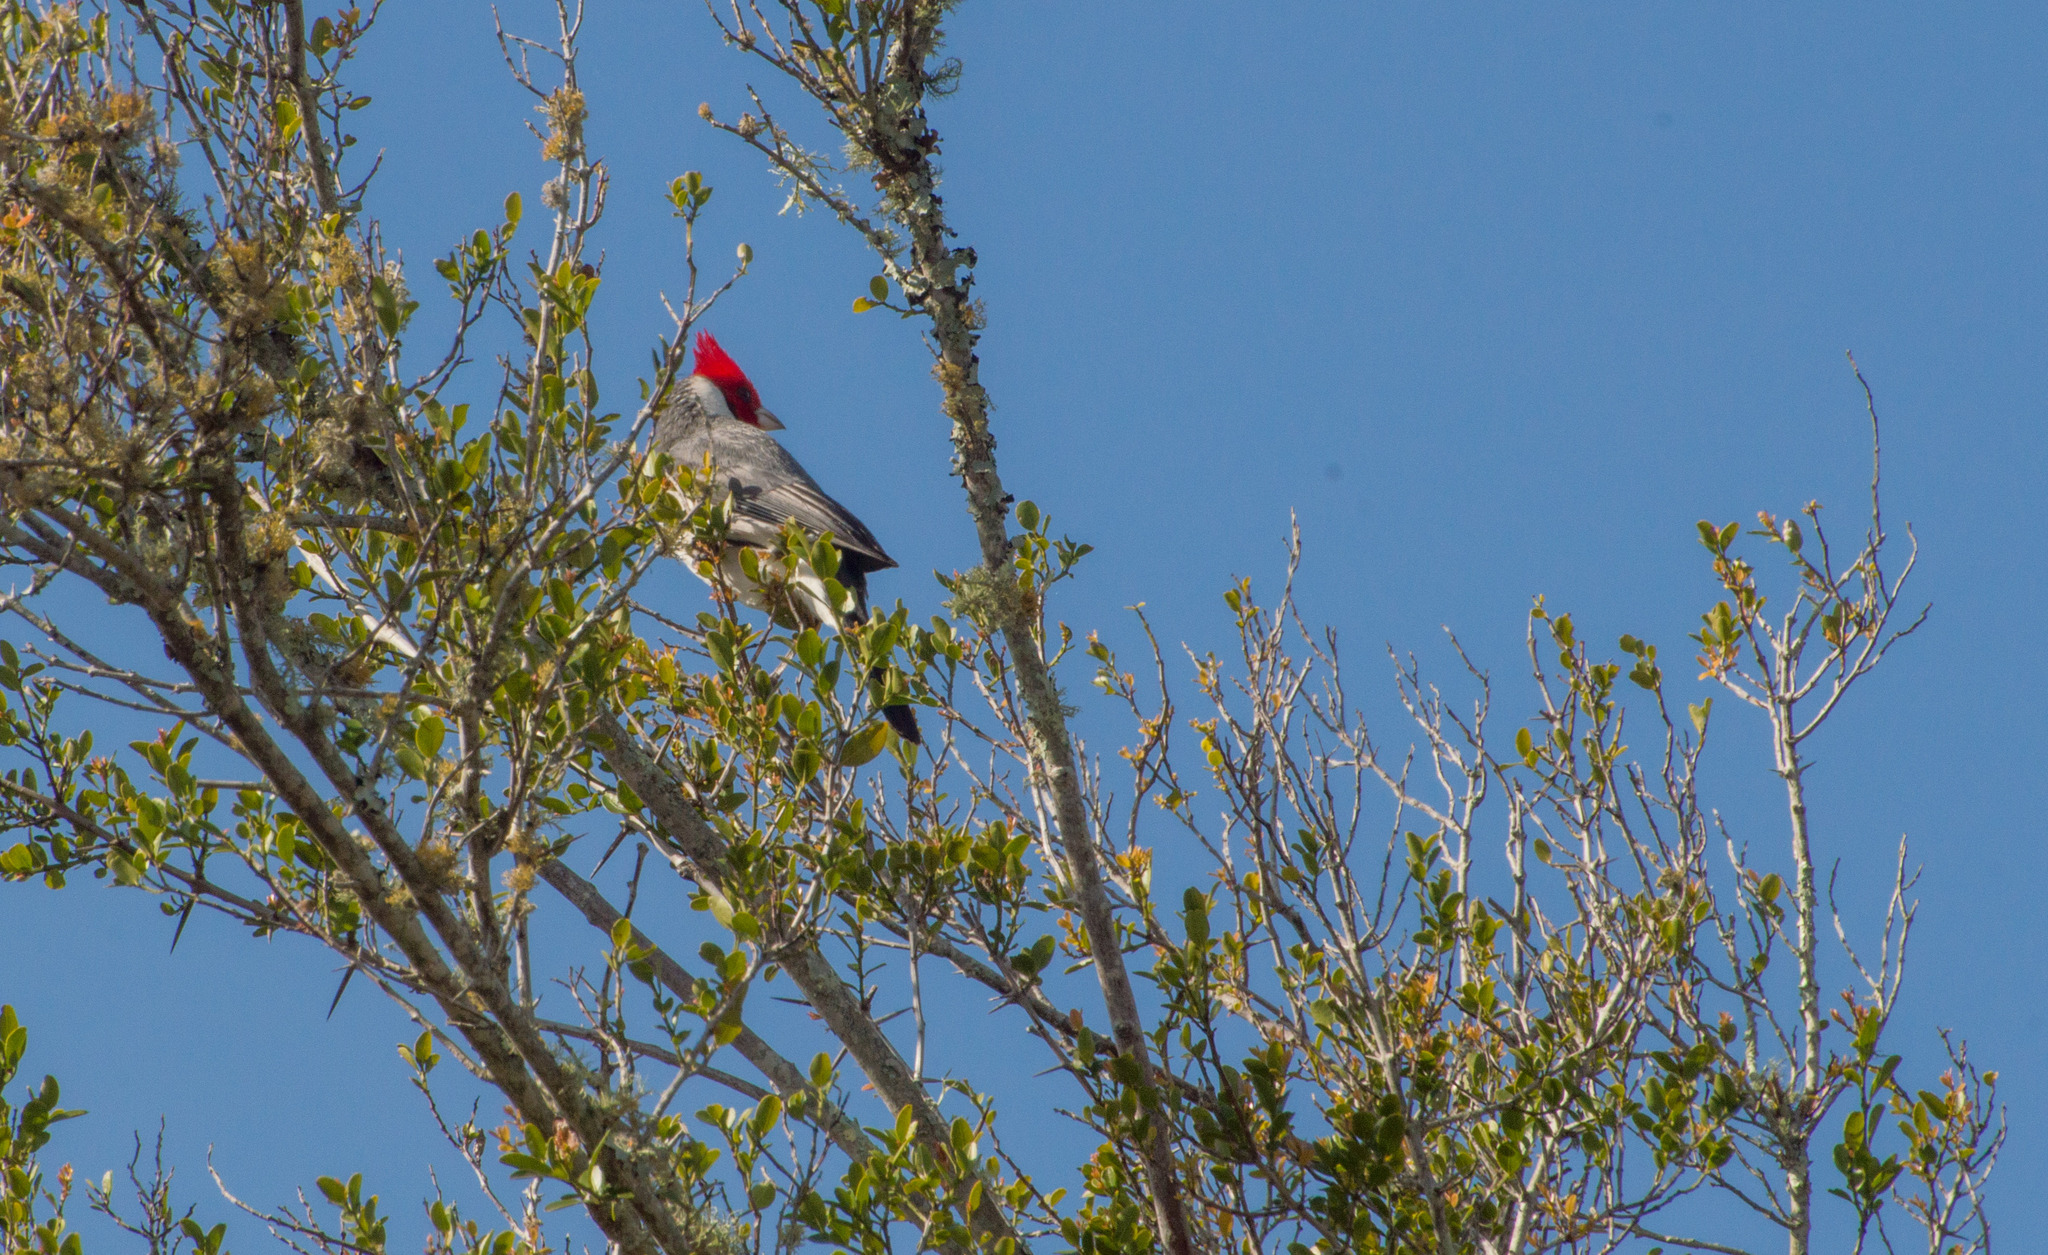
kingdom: Animalia
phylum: Chordata
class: Aves
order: Passeriformes
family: Thraupidae
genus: Paroaria
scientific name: Paroaria coronata
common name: Red-crested cardinal
